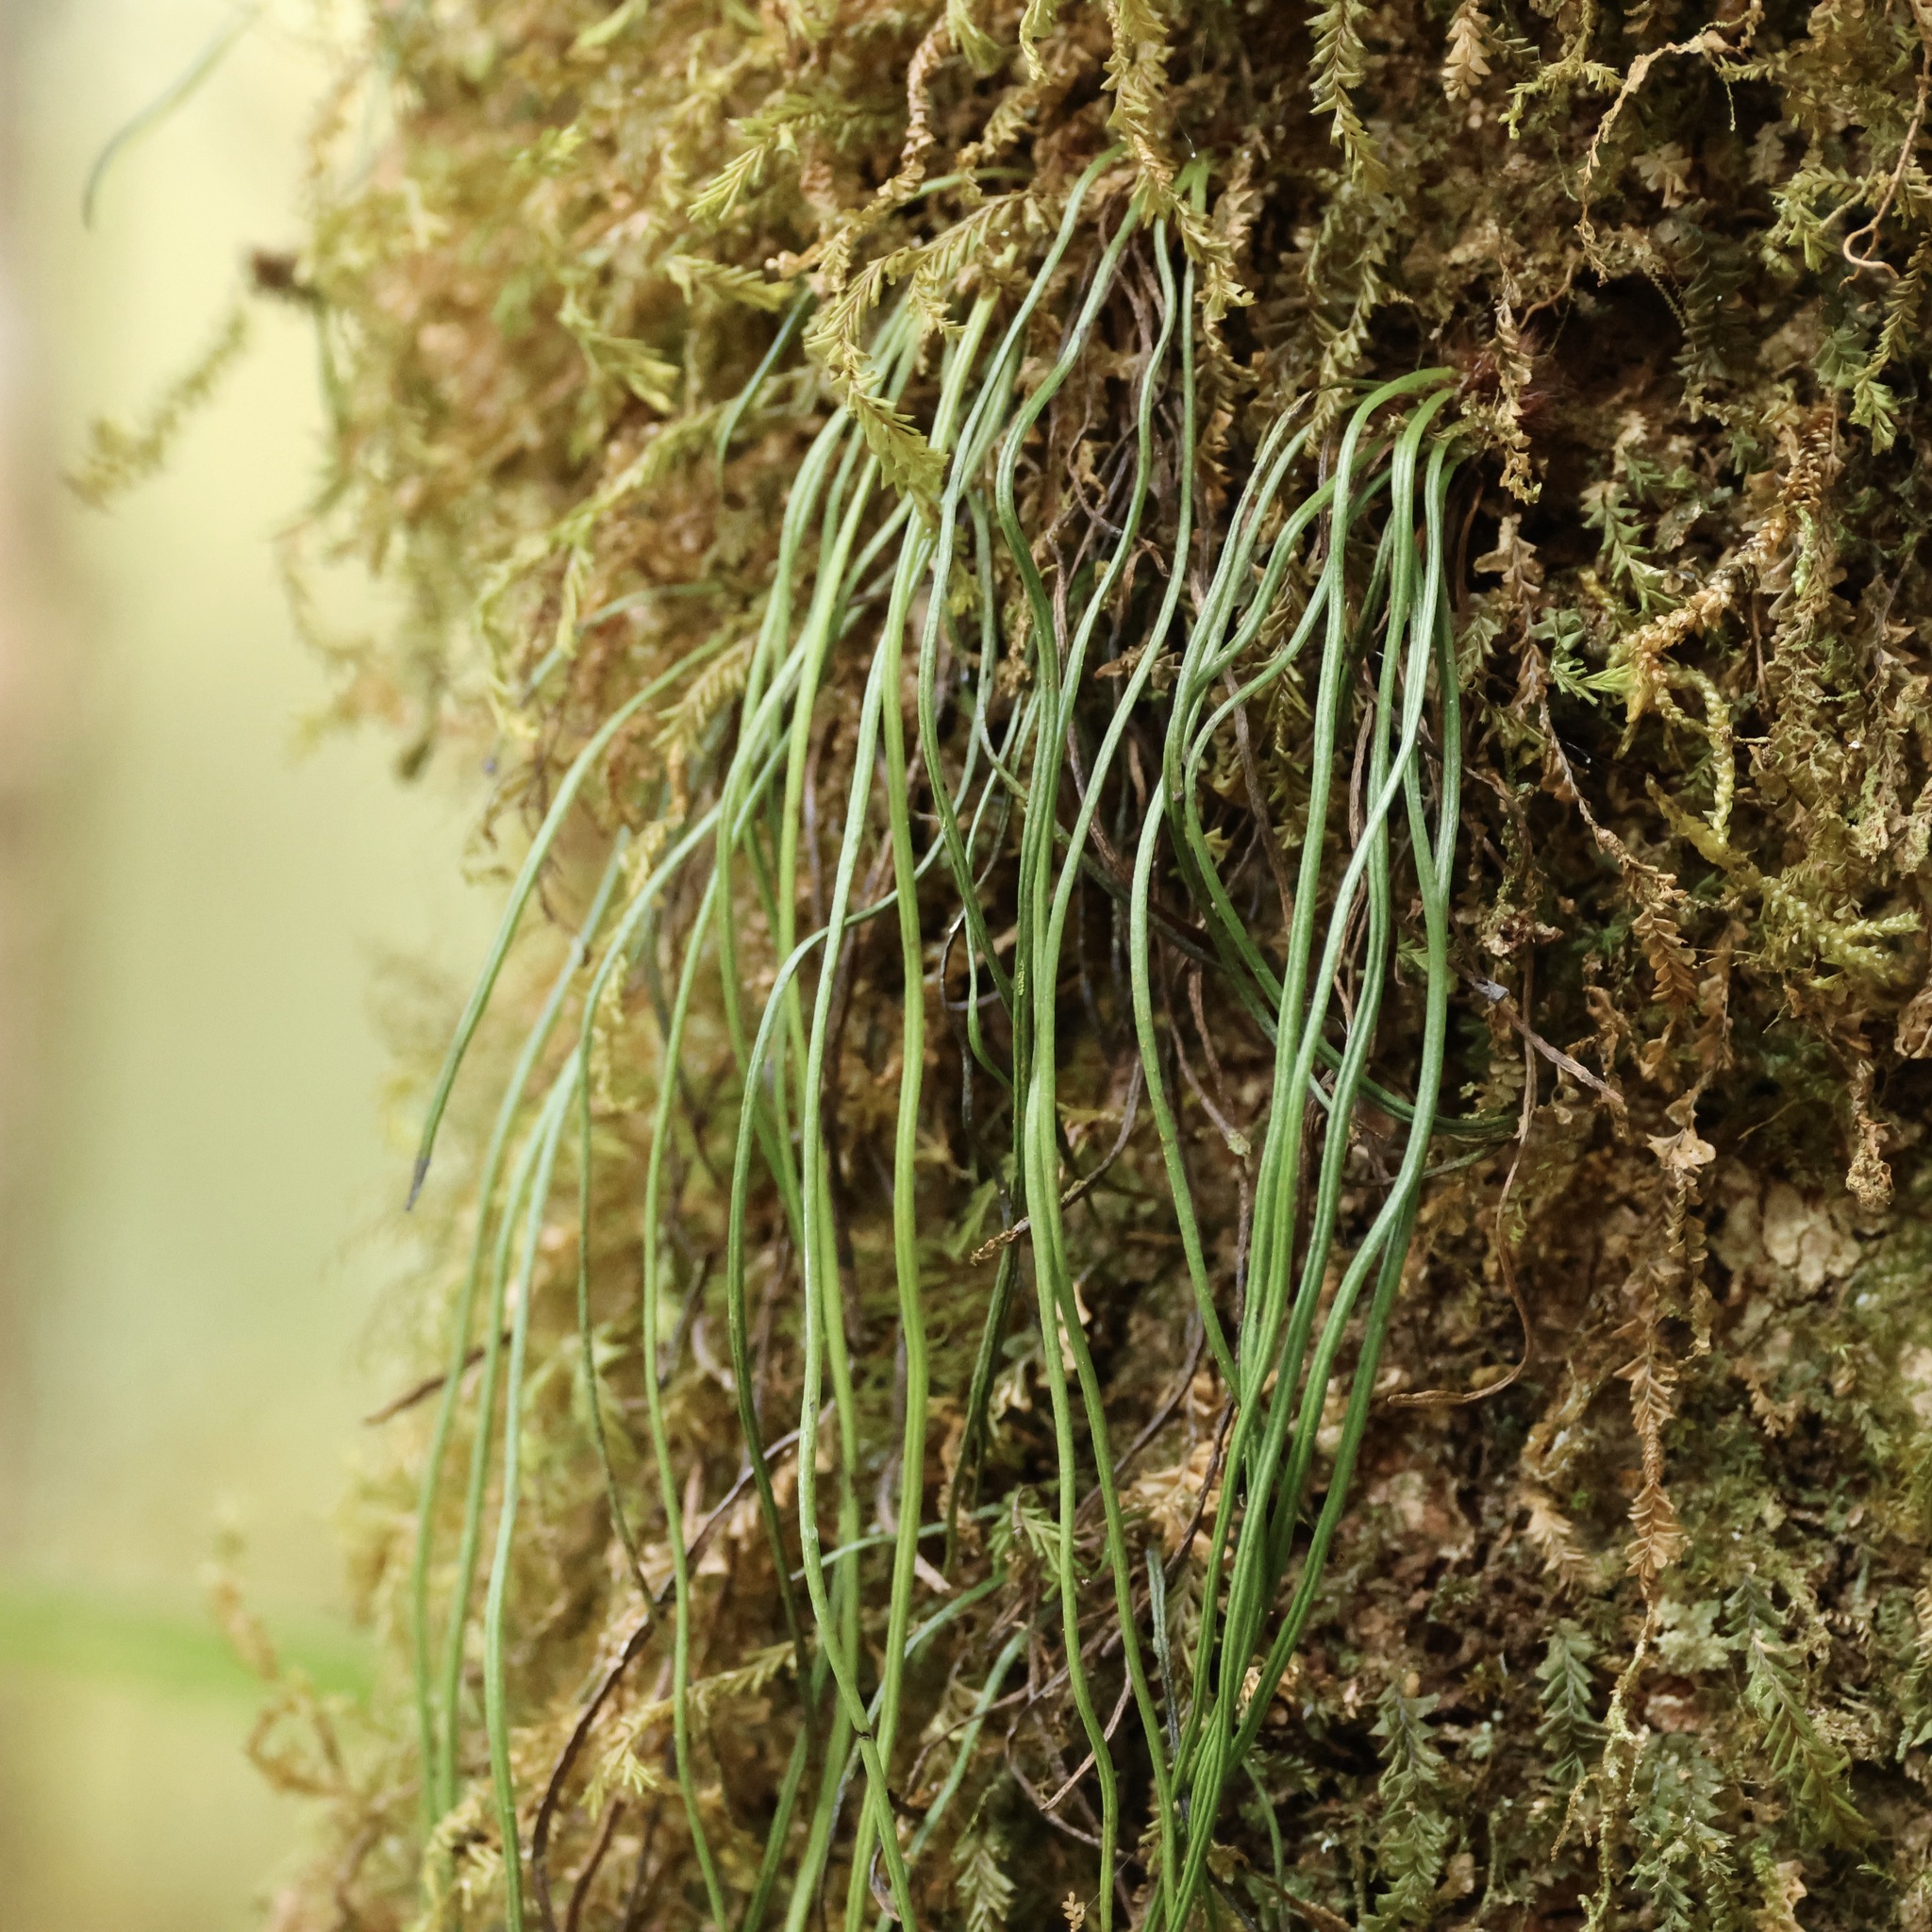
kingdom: Plantae
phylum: Tracheophyta
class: Polypodiopsida
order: Polypodiales
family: Pteridaceae
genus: Vittaria
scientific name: Vittaria lineata
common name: Shoestring fern
